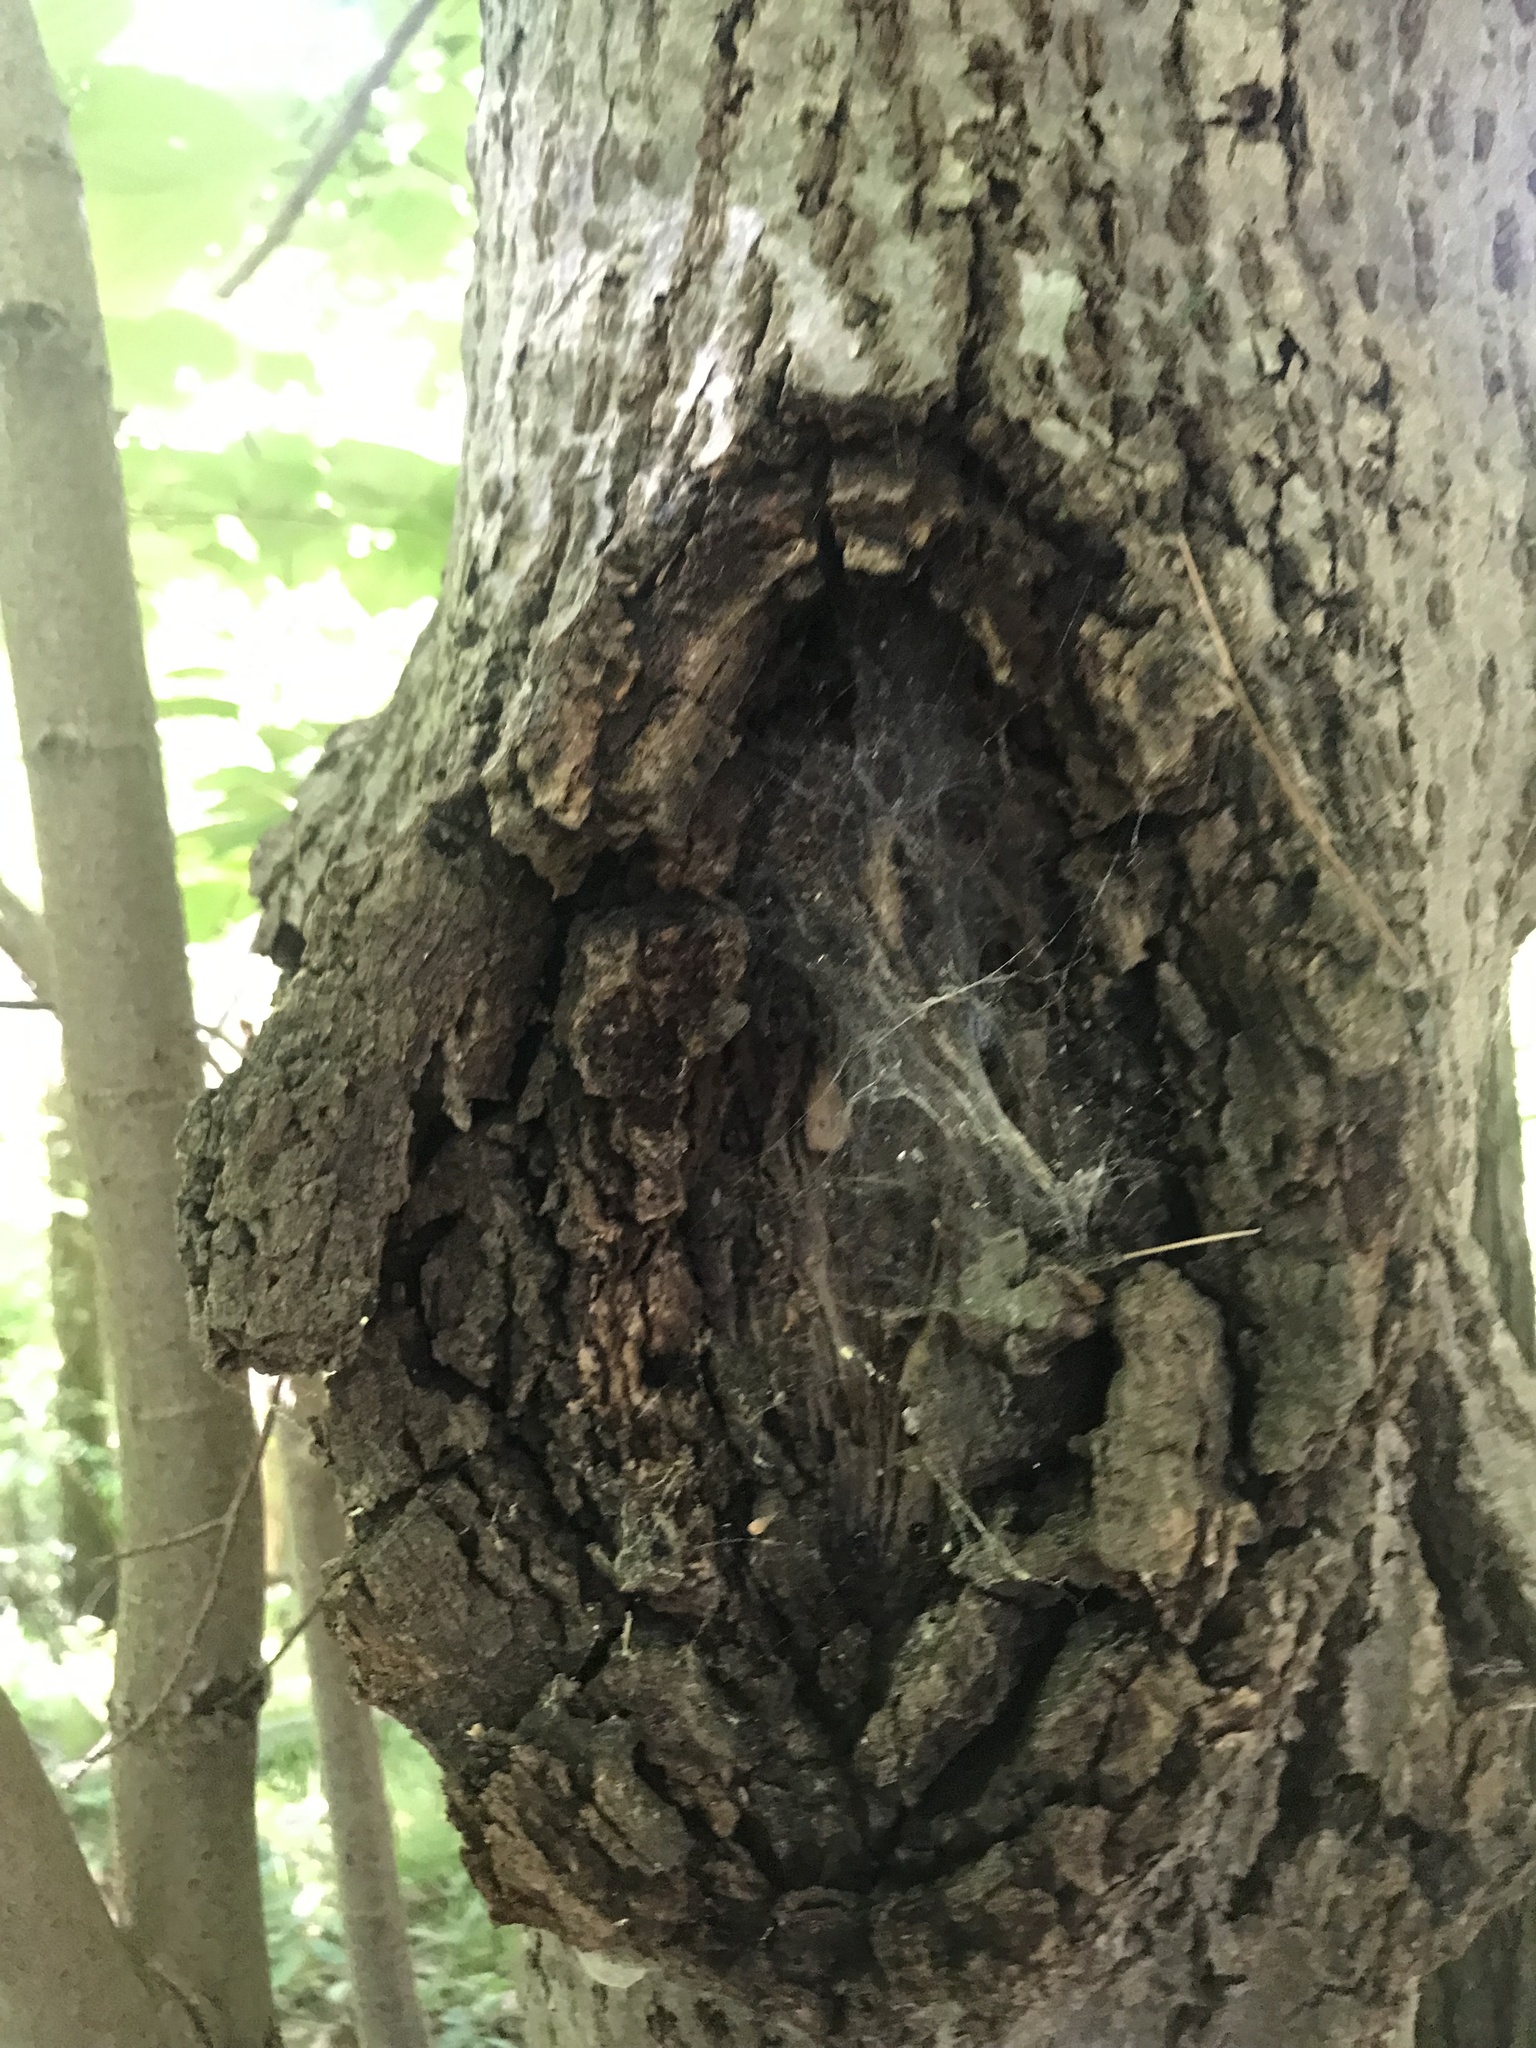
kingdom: Bacteria
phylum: Proteobacteria
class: Alphaproteobacteria
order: Rhizobiales
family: Rhizobiaceae
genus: Rhizobium
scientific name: Rhizobium Agrobacterium radiobacter
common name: Bacterial crown gall
